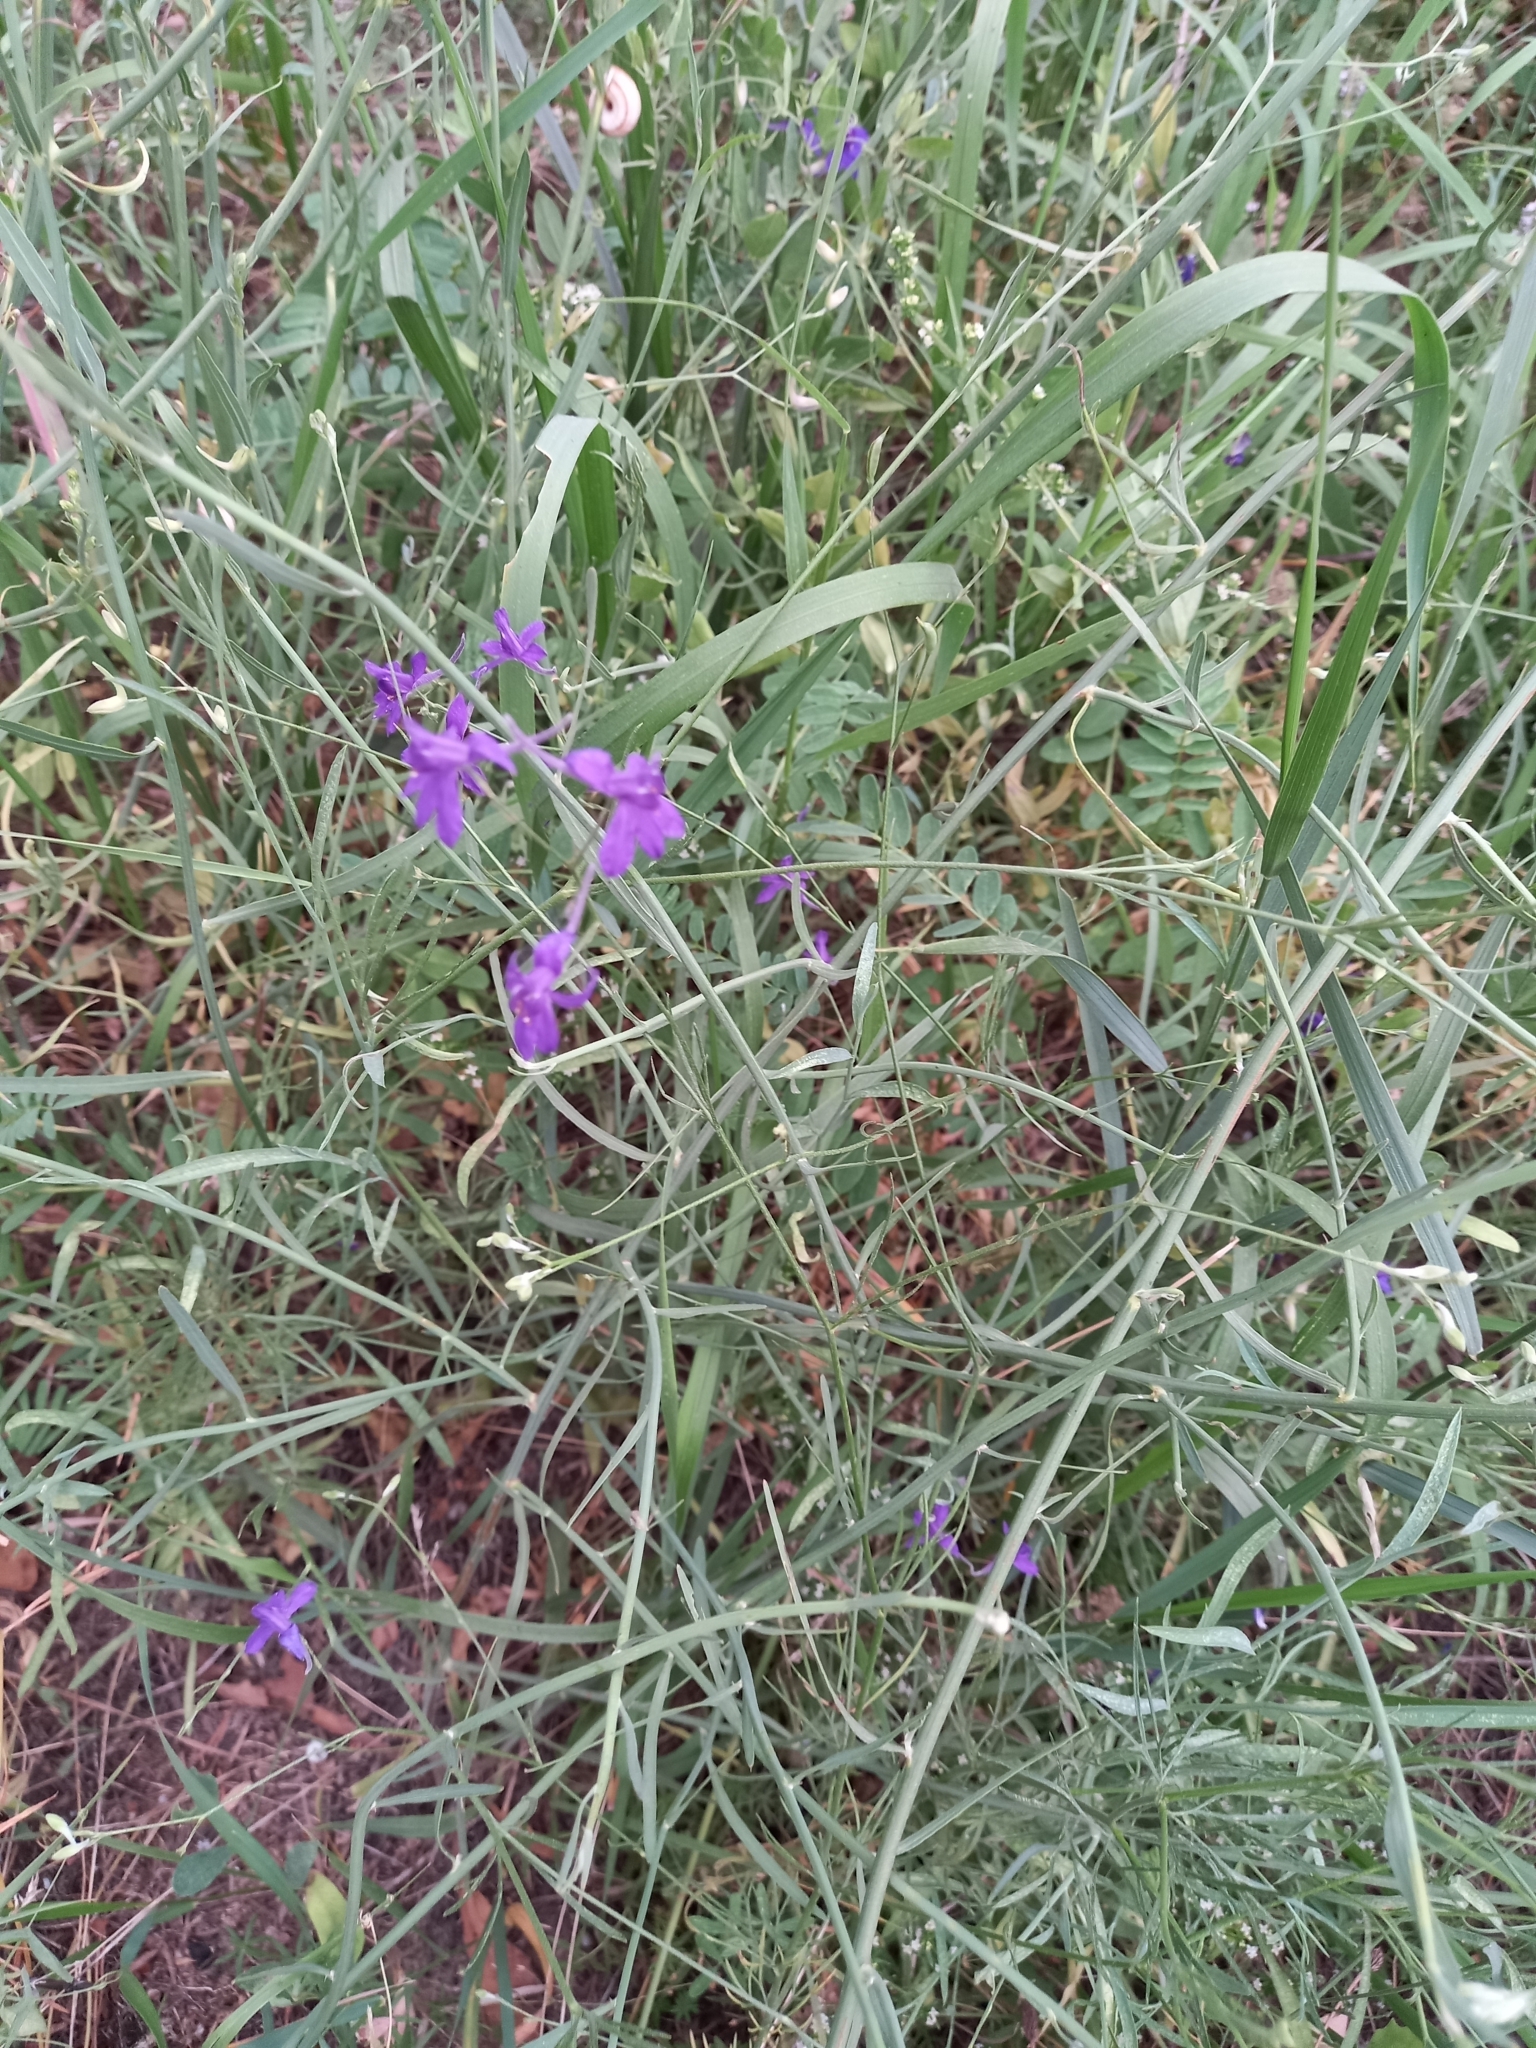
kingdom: Plantae
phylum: Tracheophyta
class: Magnoliopsida
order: Ranunculales
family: Ranunculaceae
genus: Delphinium
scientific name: Delphinium consolida
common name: Branching larkspur
